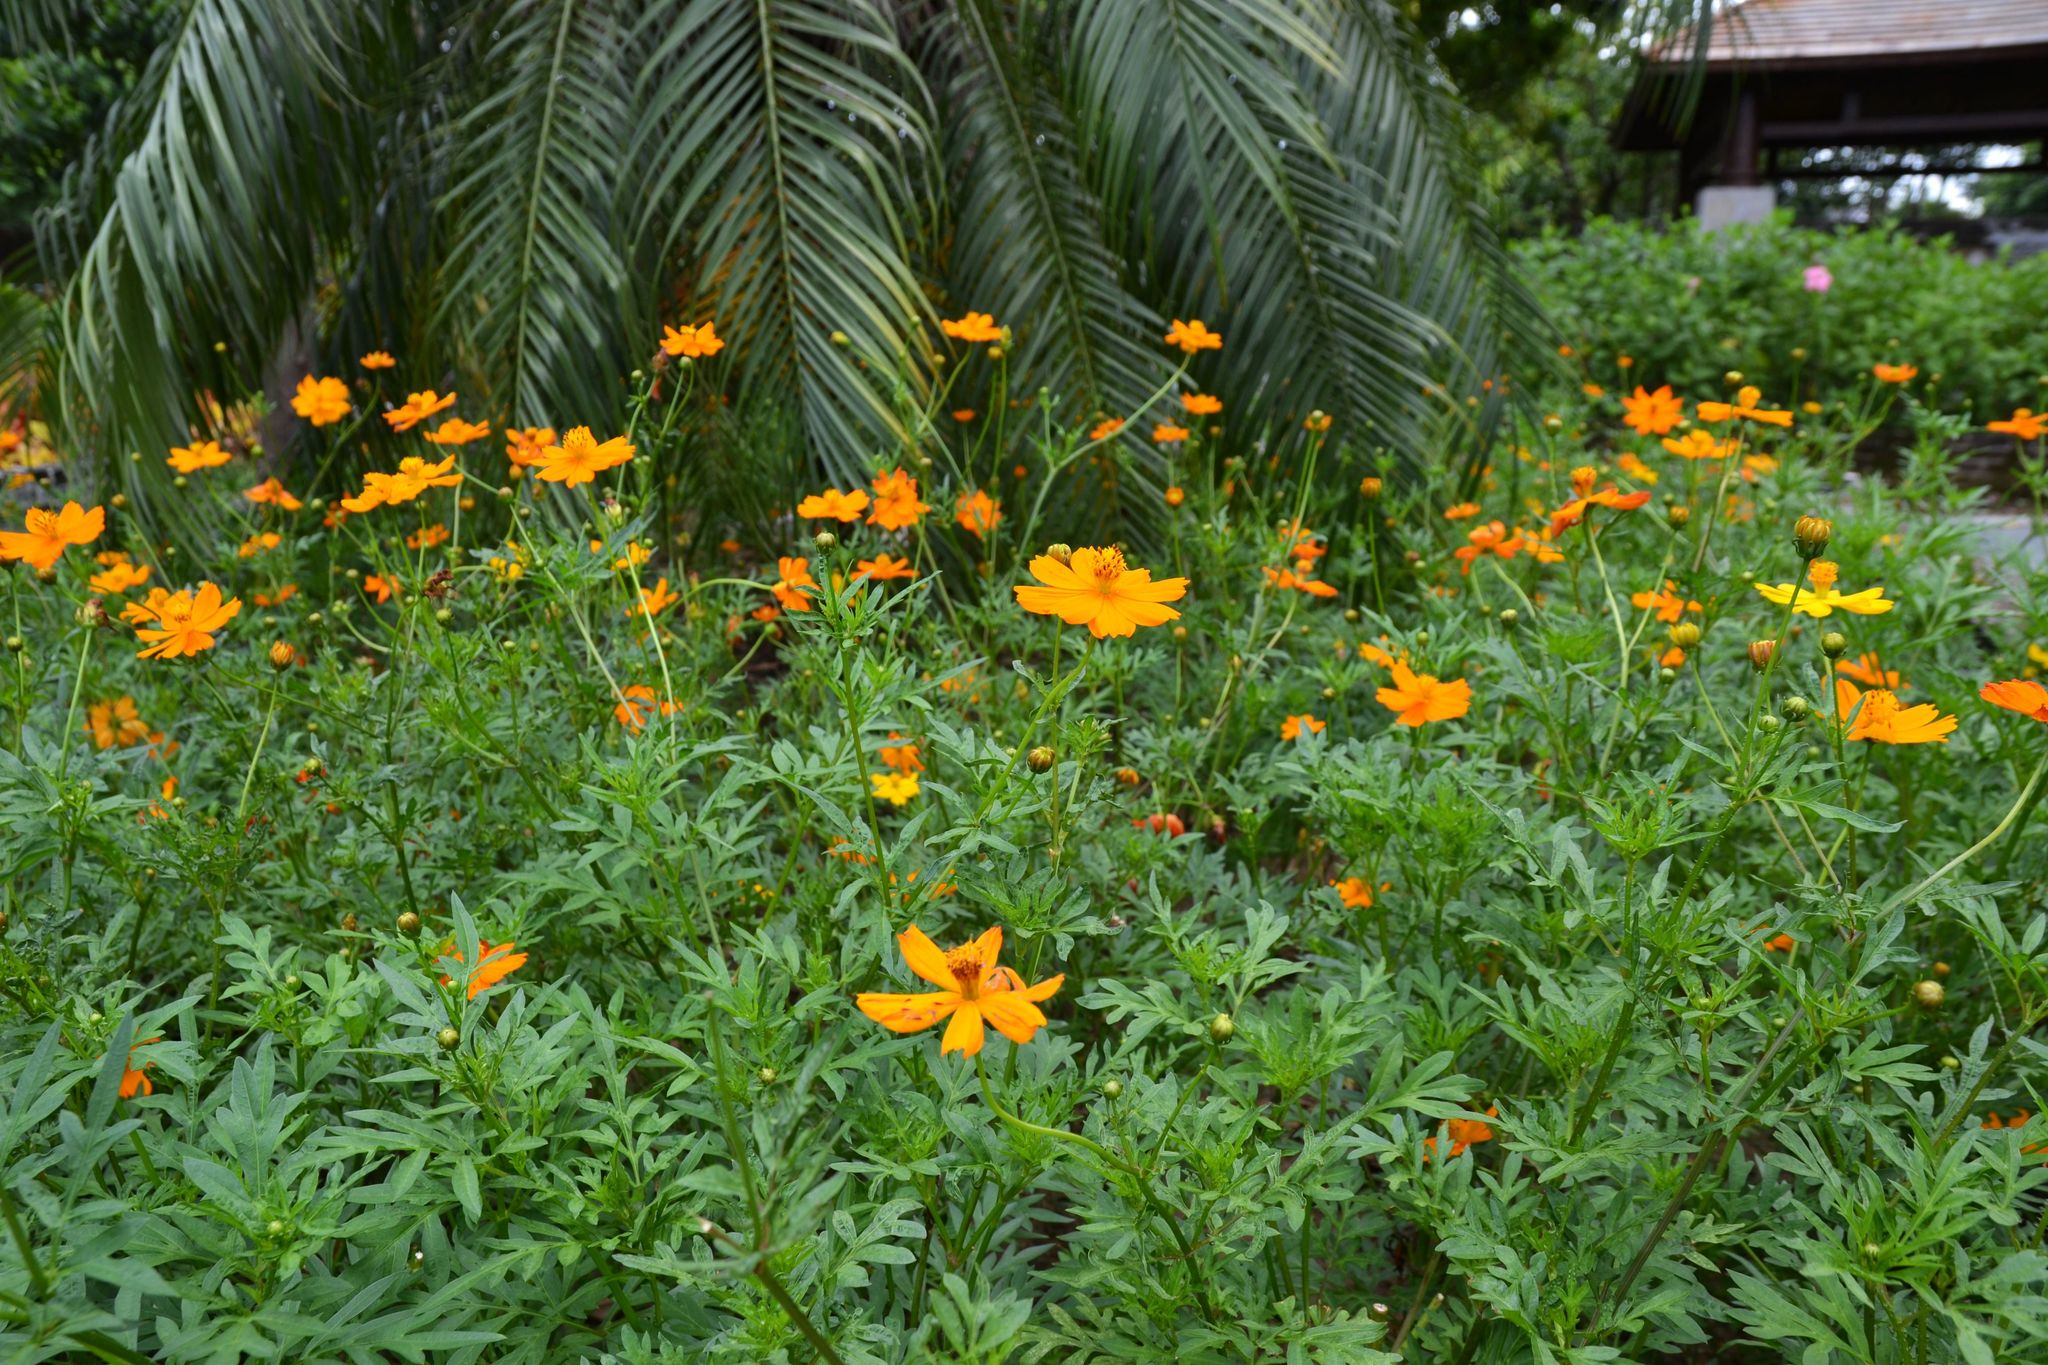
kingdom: Plantae
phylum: Tracheophyta
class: Magnoliopsida
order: Asterales
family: Asteraceae
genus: Cosmos
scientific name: Cosmos sulphureus
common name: Sulphur cosmos
